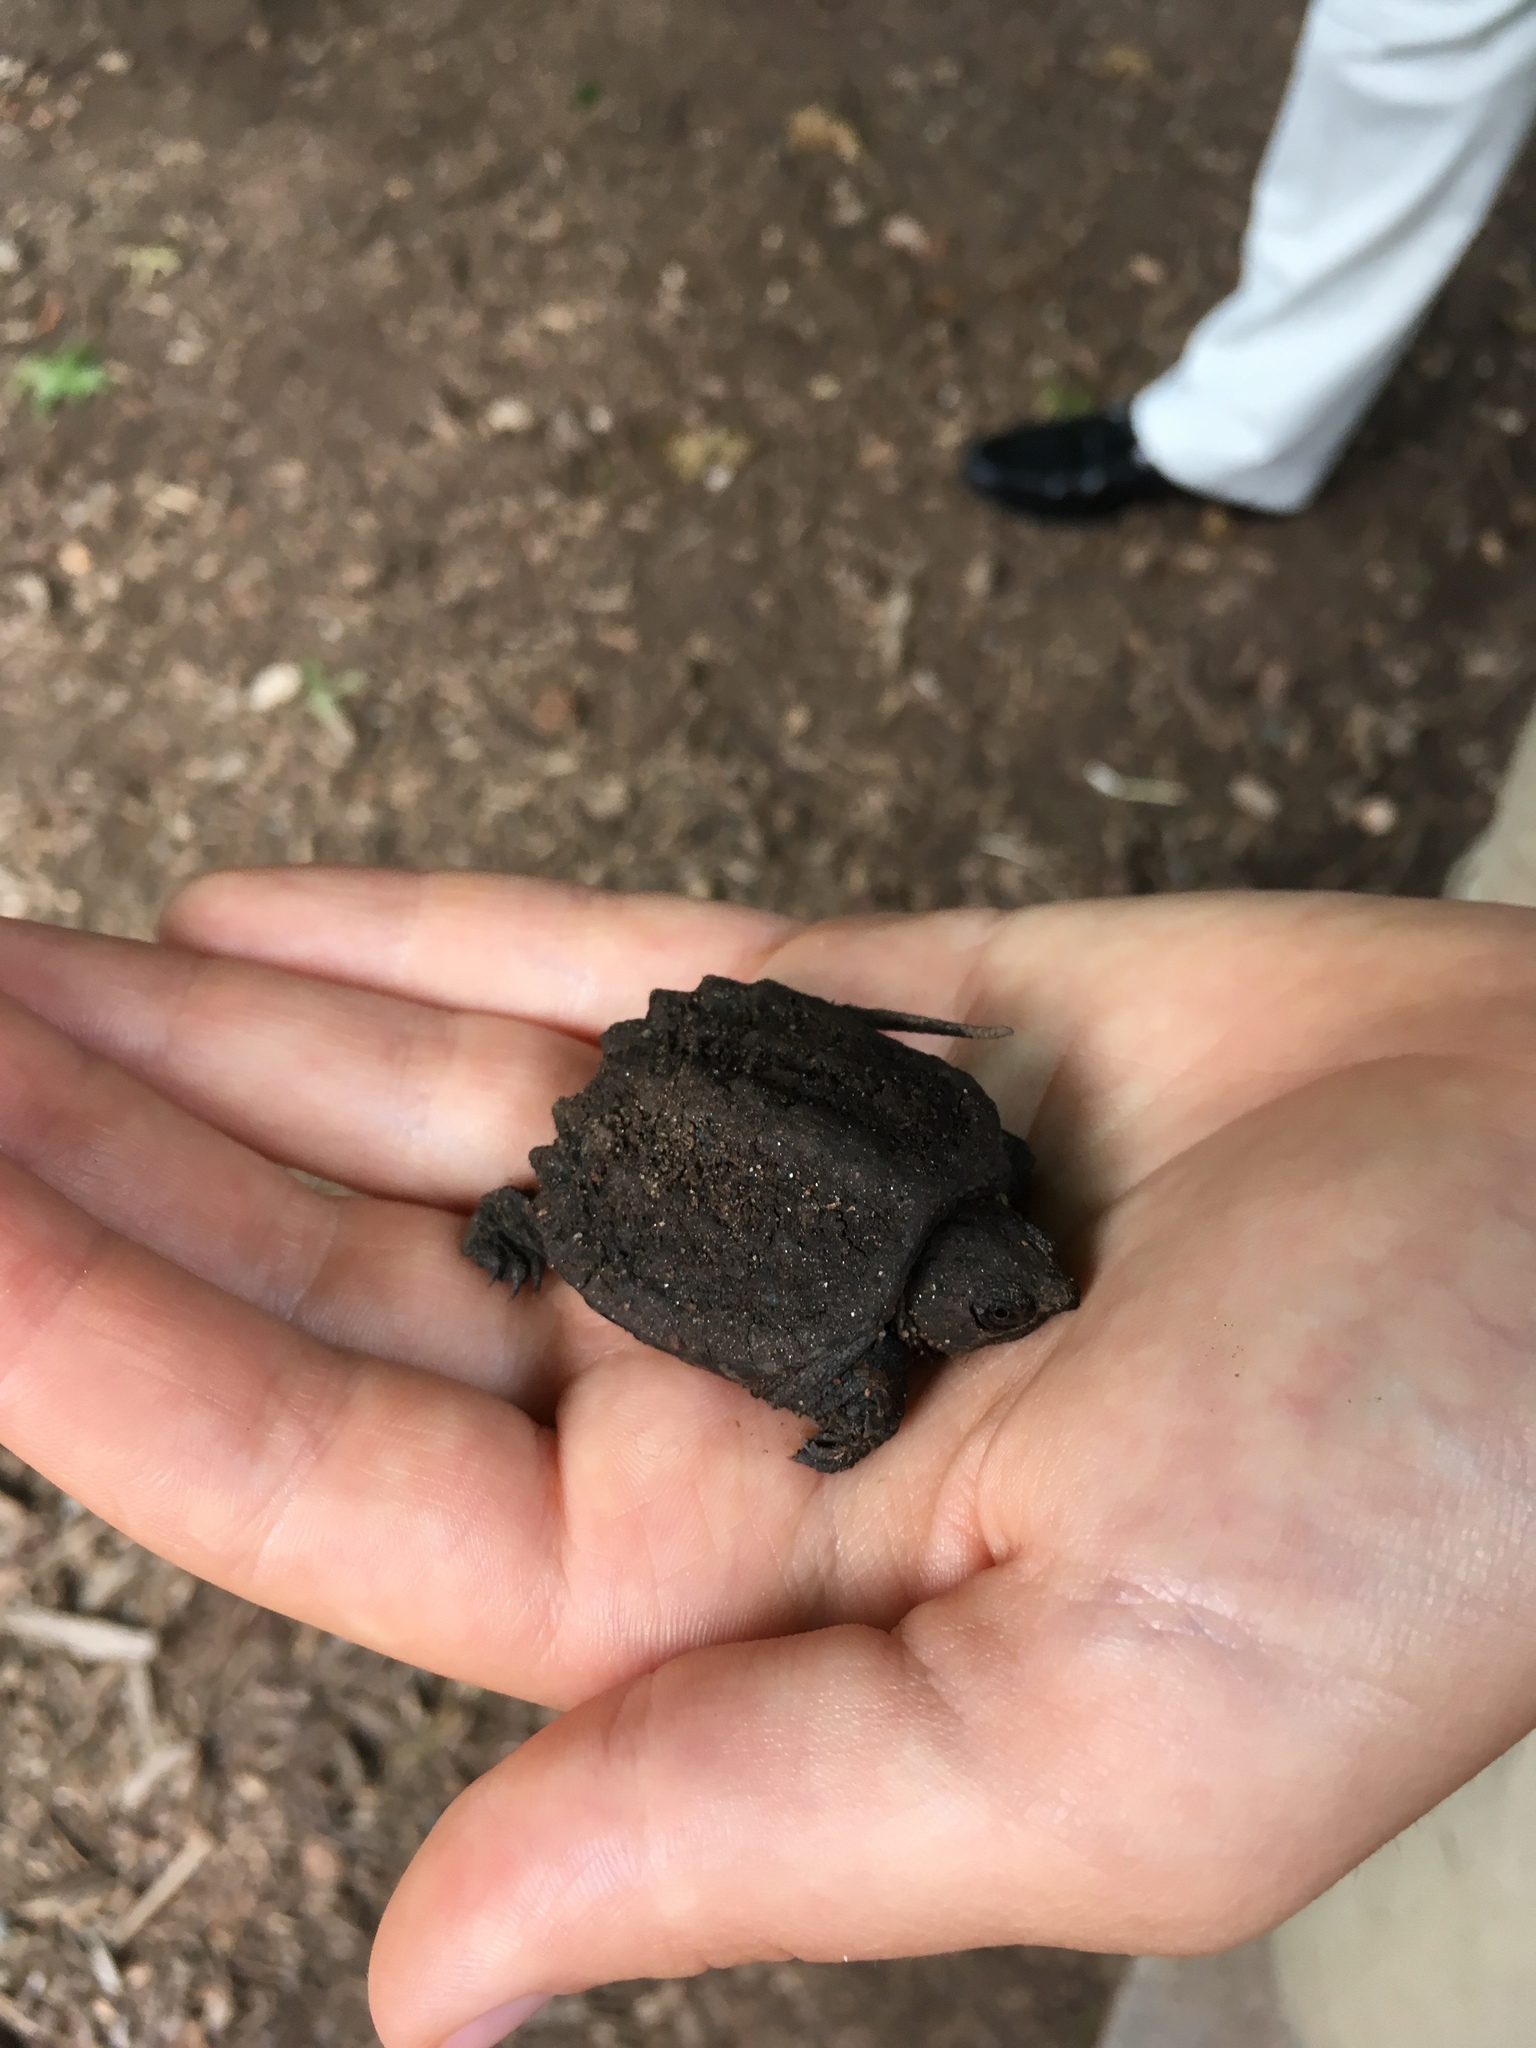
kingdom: Animalia
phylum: Chordata
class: Testudines
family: Chelydridae
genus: Chelydra
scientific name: Chelydra serpentina
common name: Common snapping turtle
